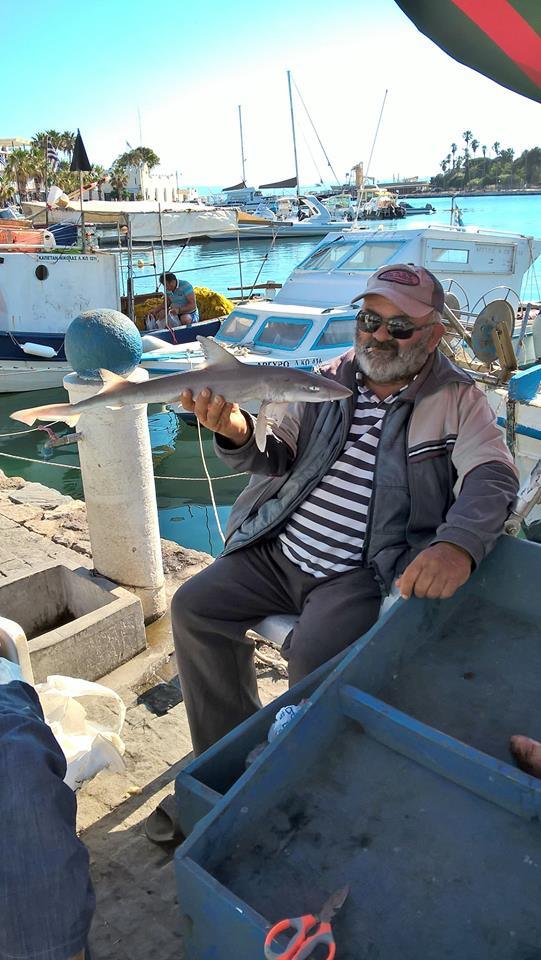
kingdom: Animalia
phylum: Chordata
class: Elasmobranchii
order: Carcharhiniformes
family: Triakidae
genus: Mustelus
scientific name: Mustelus mustelus
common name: Smooth-hound
